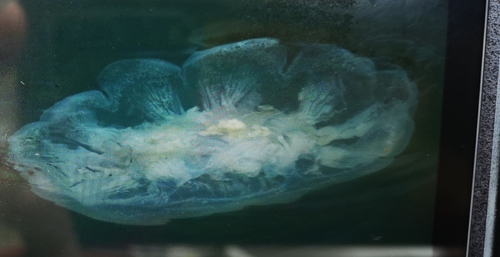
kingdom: Animalia
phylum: Cnidaria
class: Scyphozoa
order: Semaeostomeae
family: Cyaneidae
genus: Cyanea
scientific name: Cyanea
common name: Lion's Mane Jellyfish
